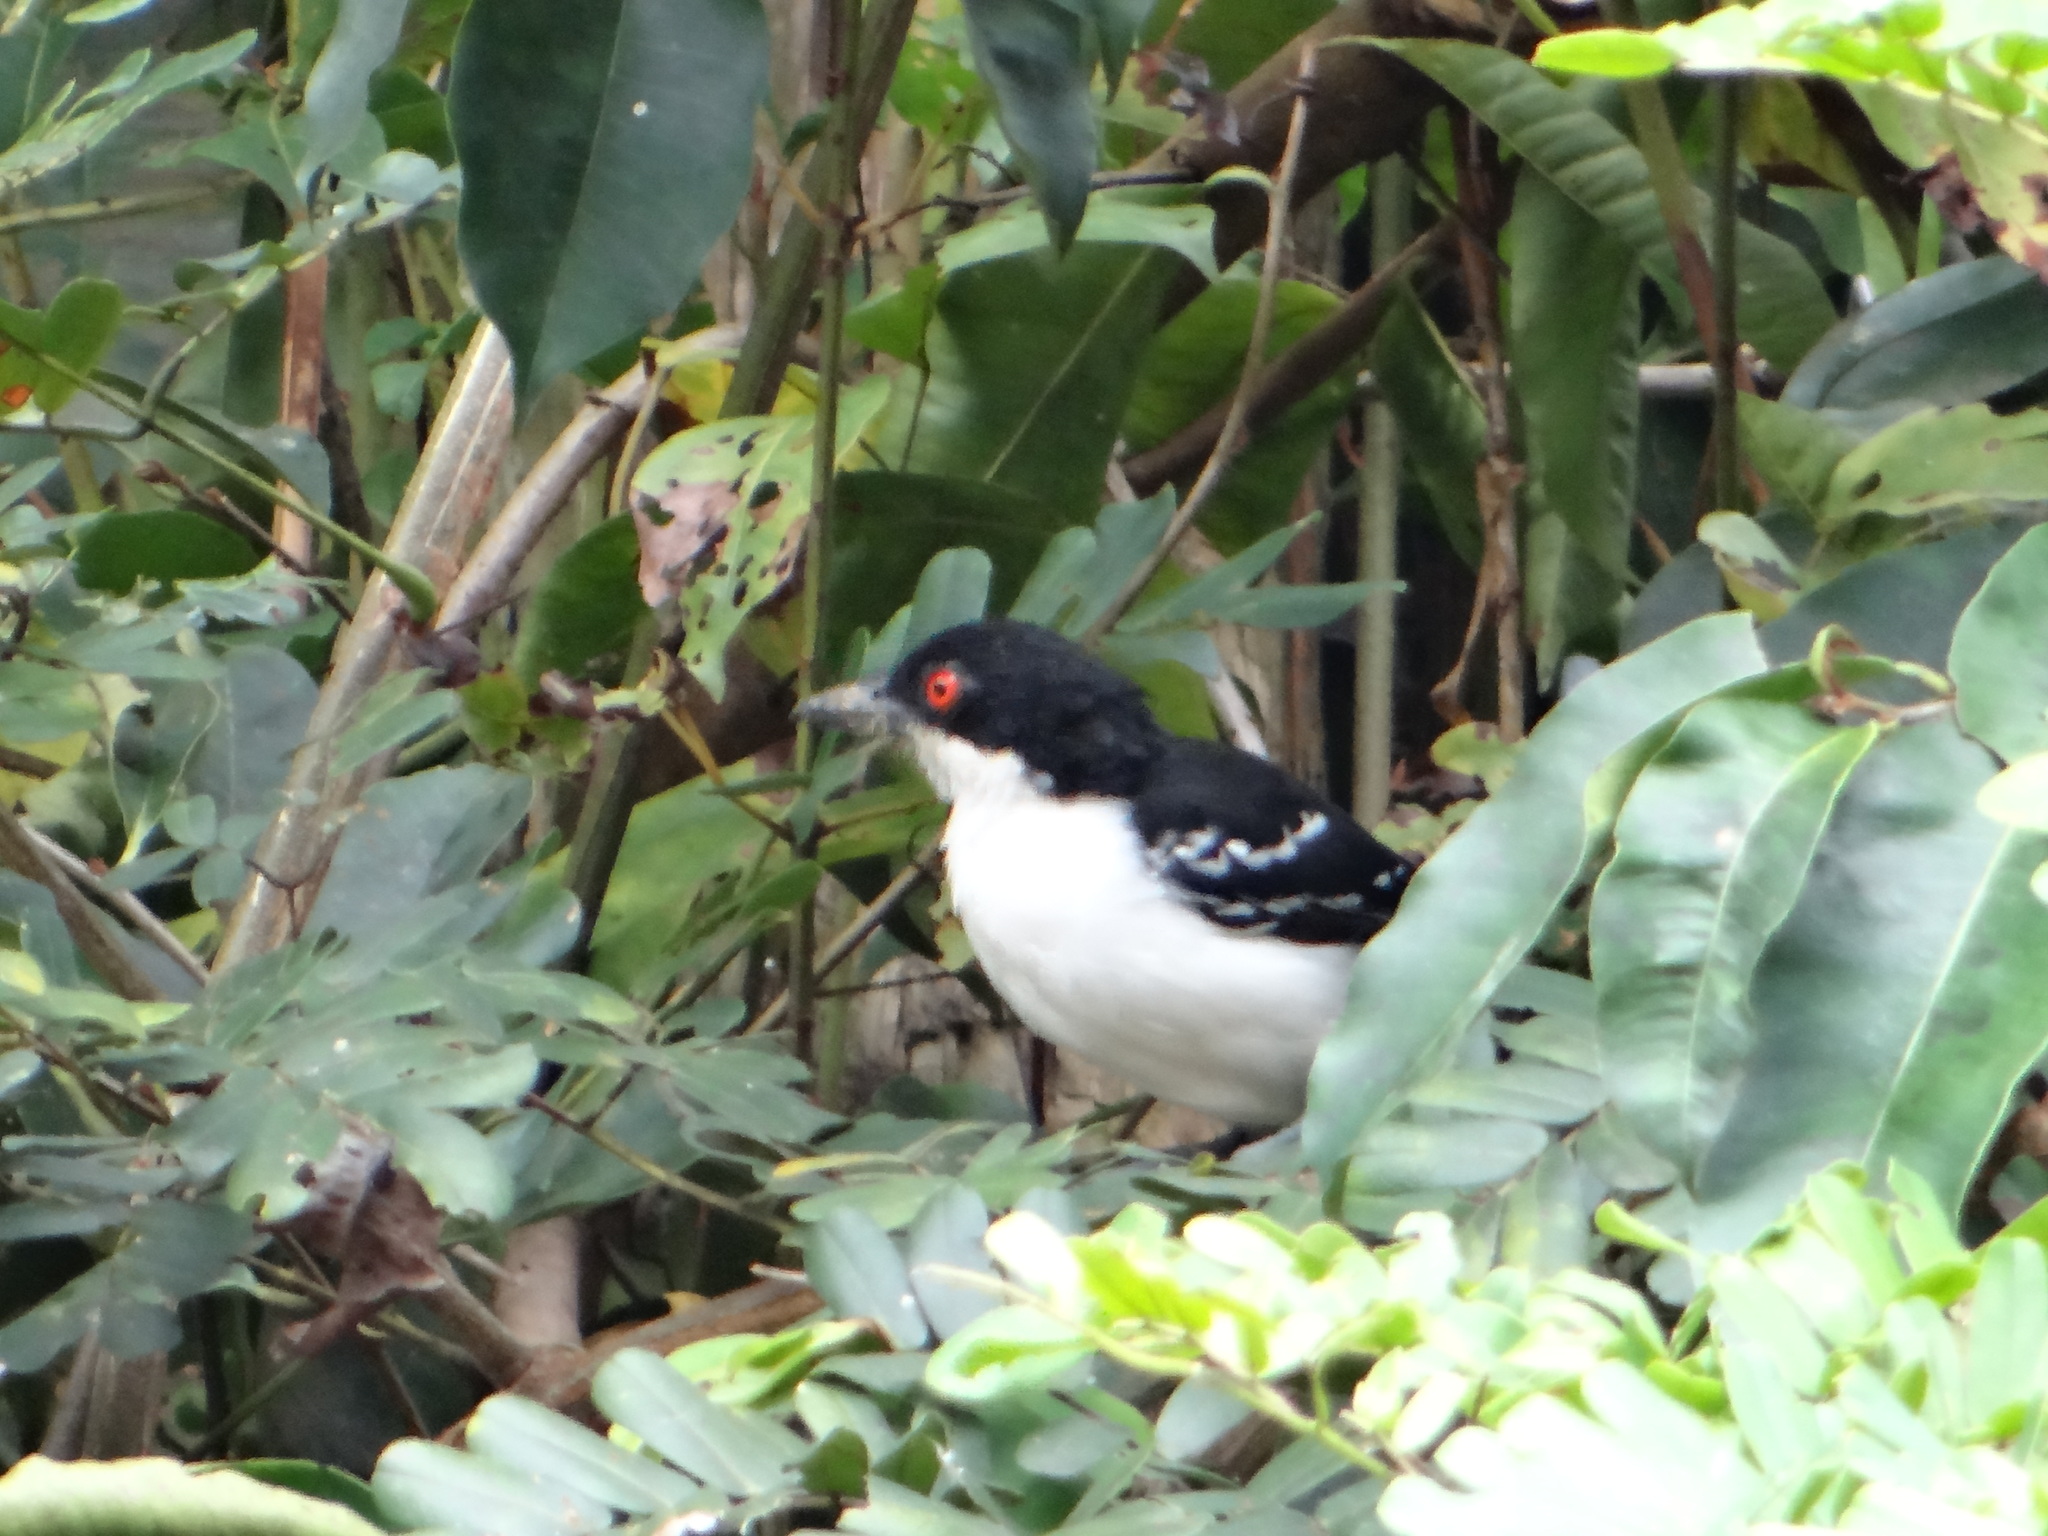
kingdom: Animalia
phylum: Chordata
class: Aves
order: Passeriformes
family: Thamnophilidae
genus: Taraba
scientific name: Taraba major
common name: Great antshrike
